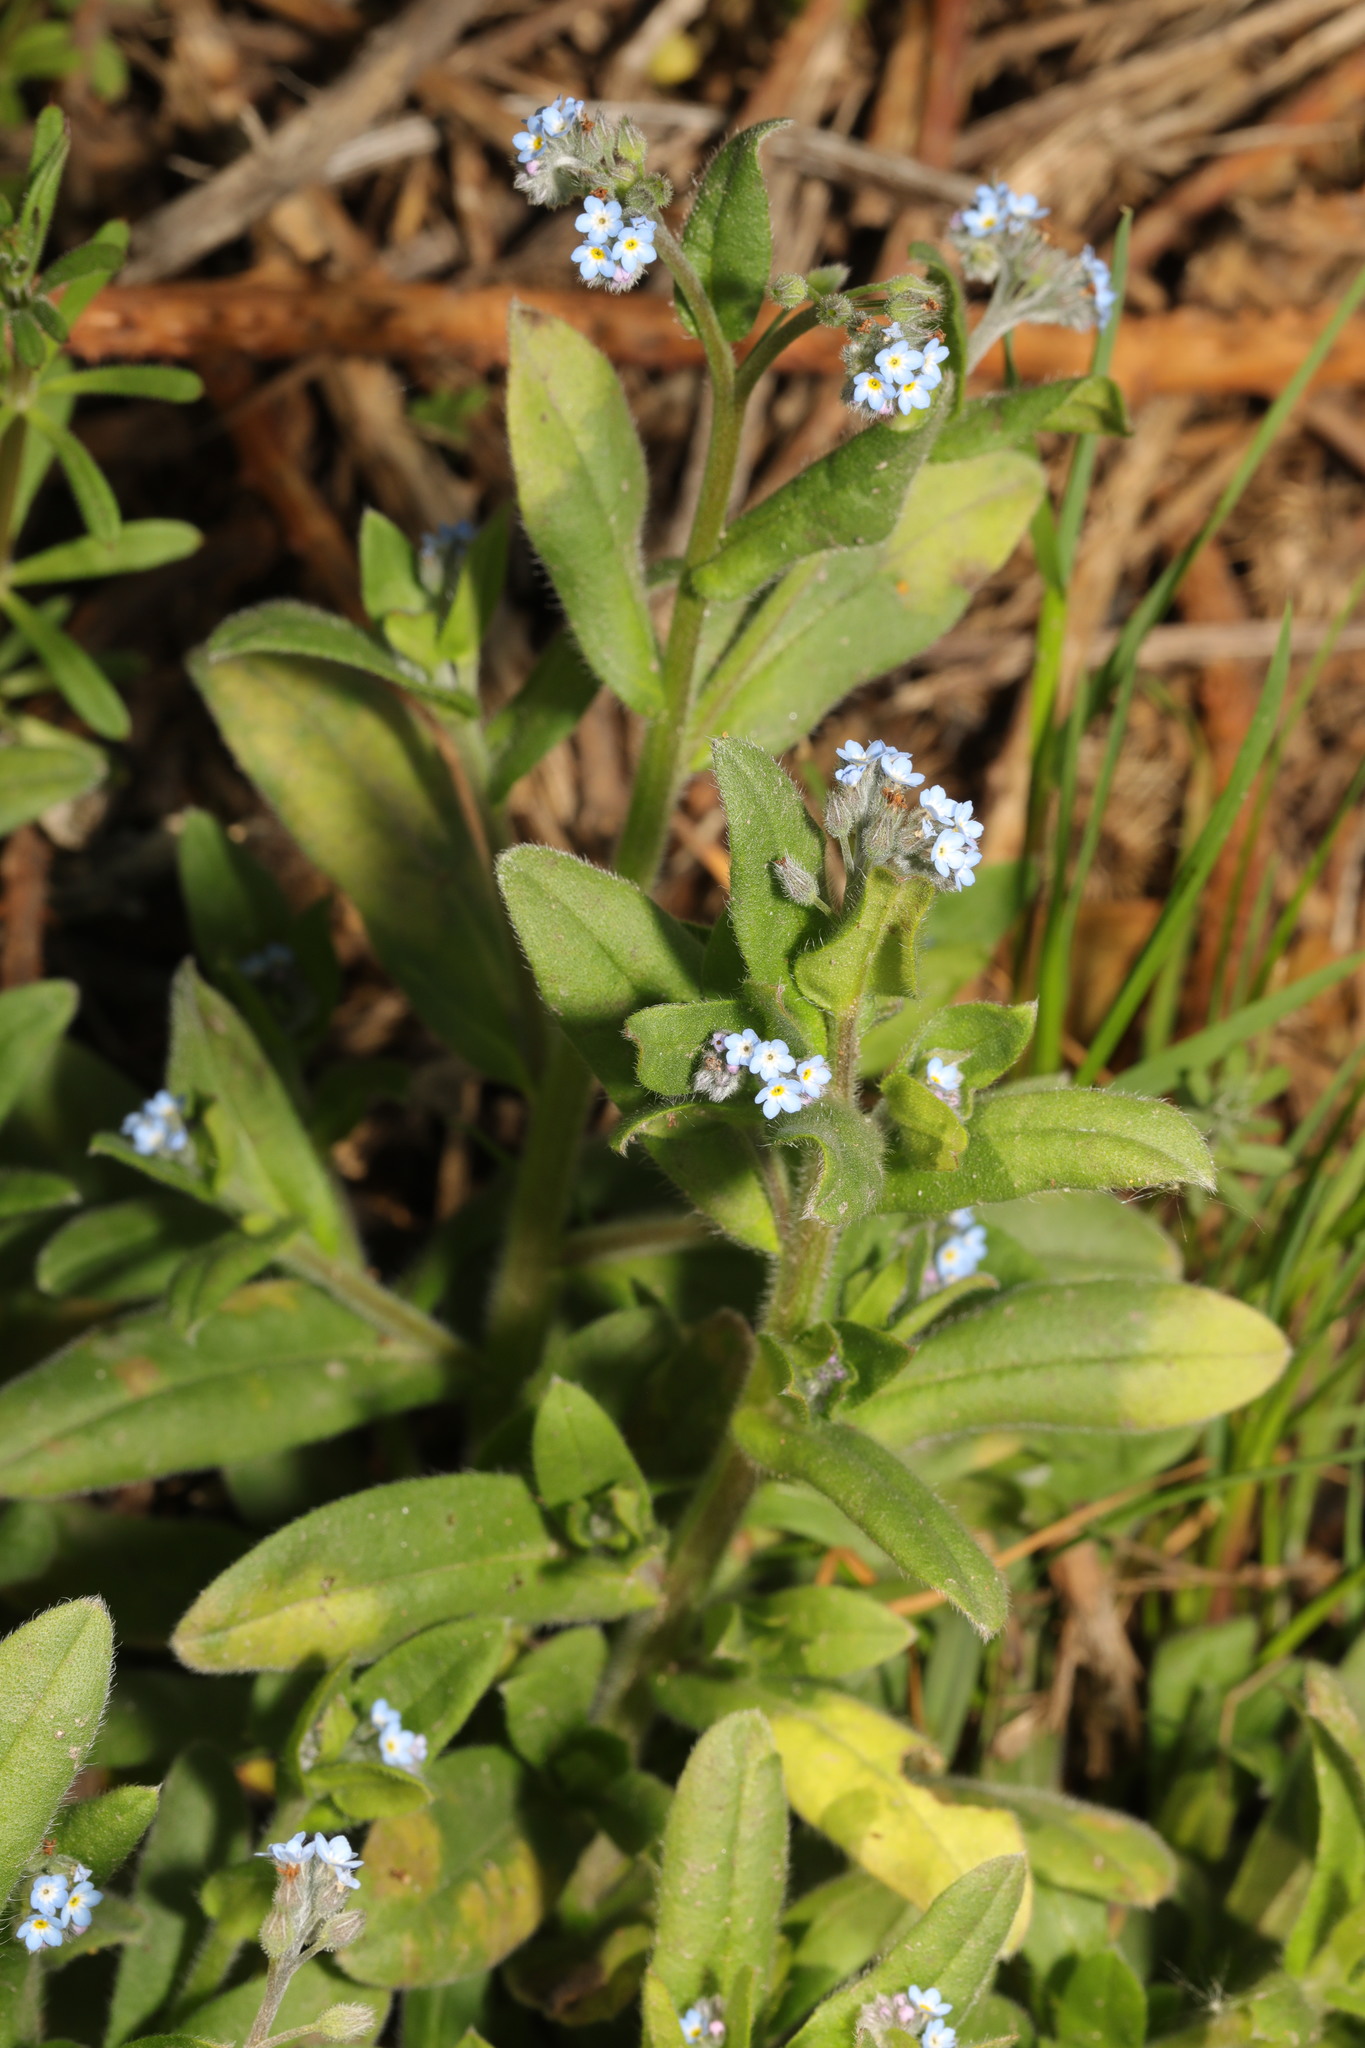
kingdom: Plantae
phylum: Tracheophyta
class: Magnoliopsida
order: Boraginales
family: Boraginaceae
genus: Myosotis
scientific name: Myosotis arvensis
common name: Field forget-me-not
